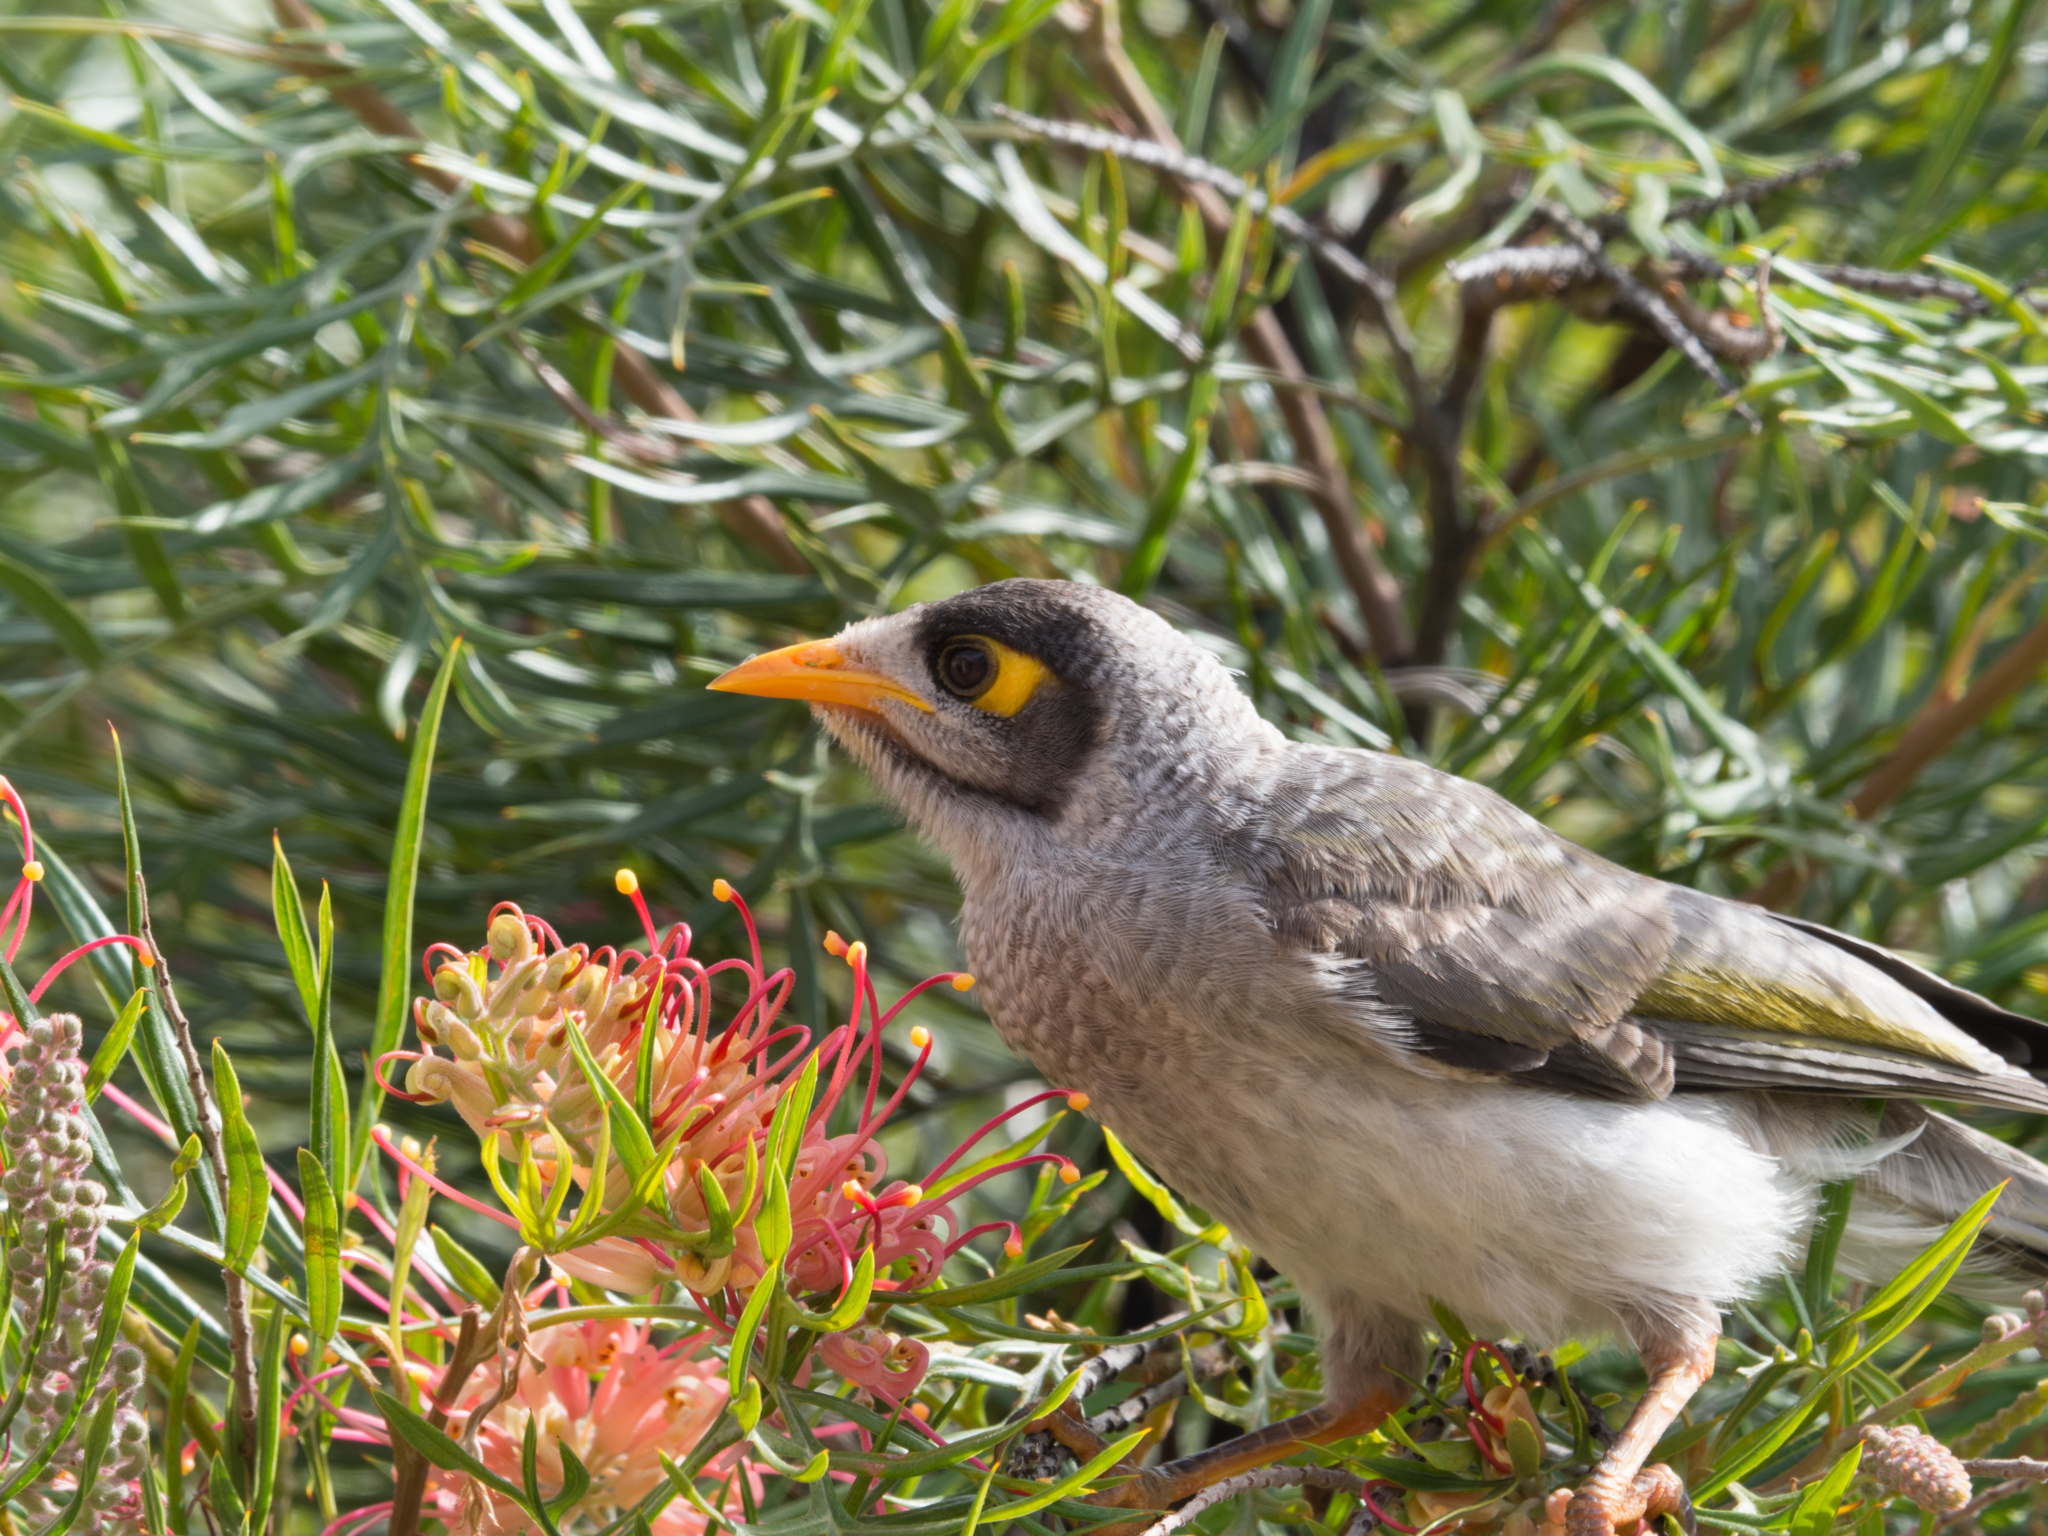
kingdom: Animalia
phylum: Chordata
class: Aves
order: Passeriformes
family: Meliphagidae
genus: Manorina
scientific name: Manorina melanocephala
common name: Noisy miner
